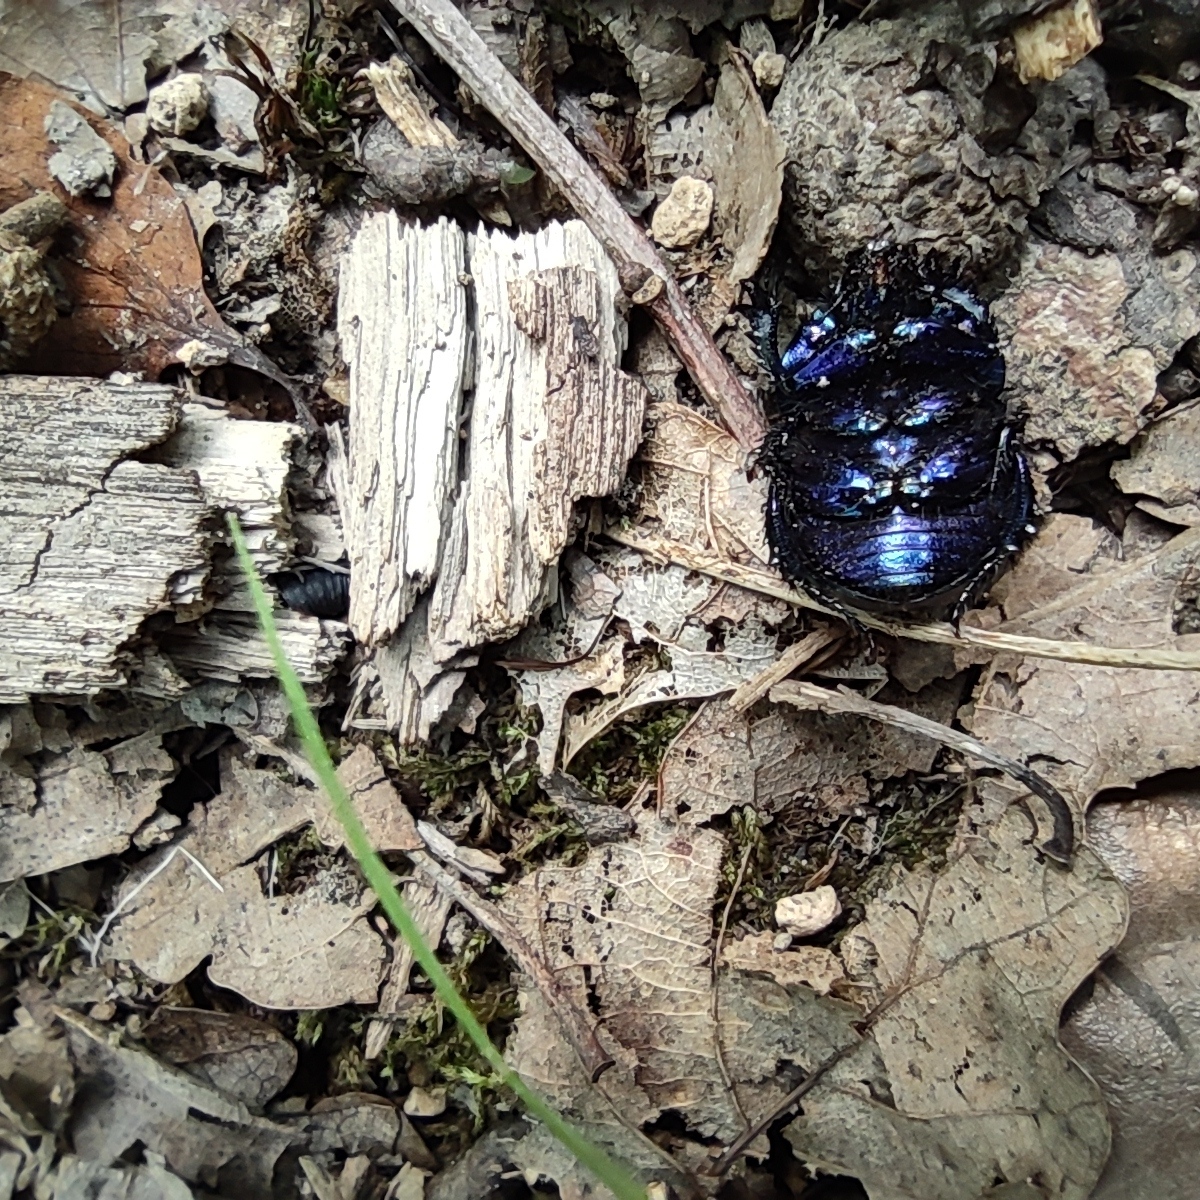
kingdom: Animalia
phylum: Arthropoda
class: Insecta
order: Coleoptera
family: Geotrupidae
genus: Anoplotrupes
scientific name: Anoplotrupes stercorosus
